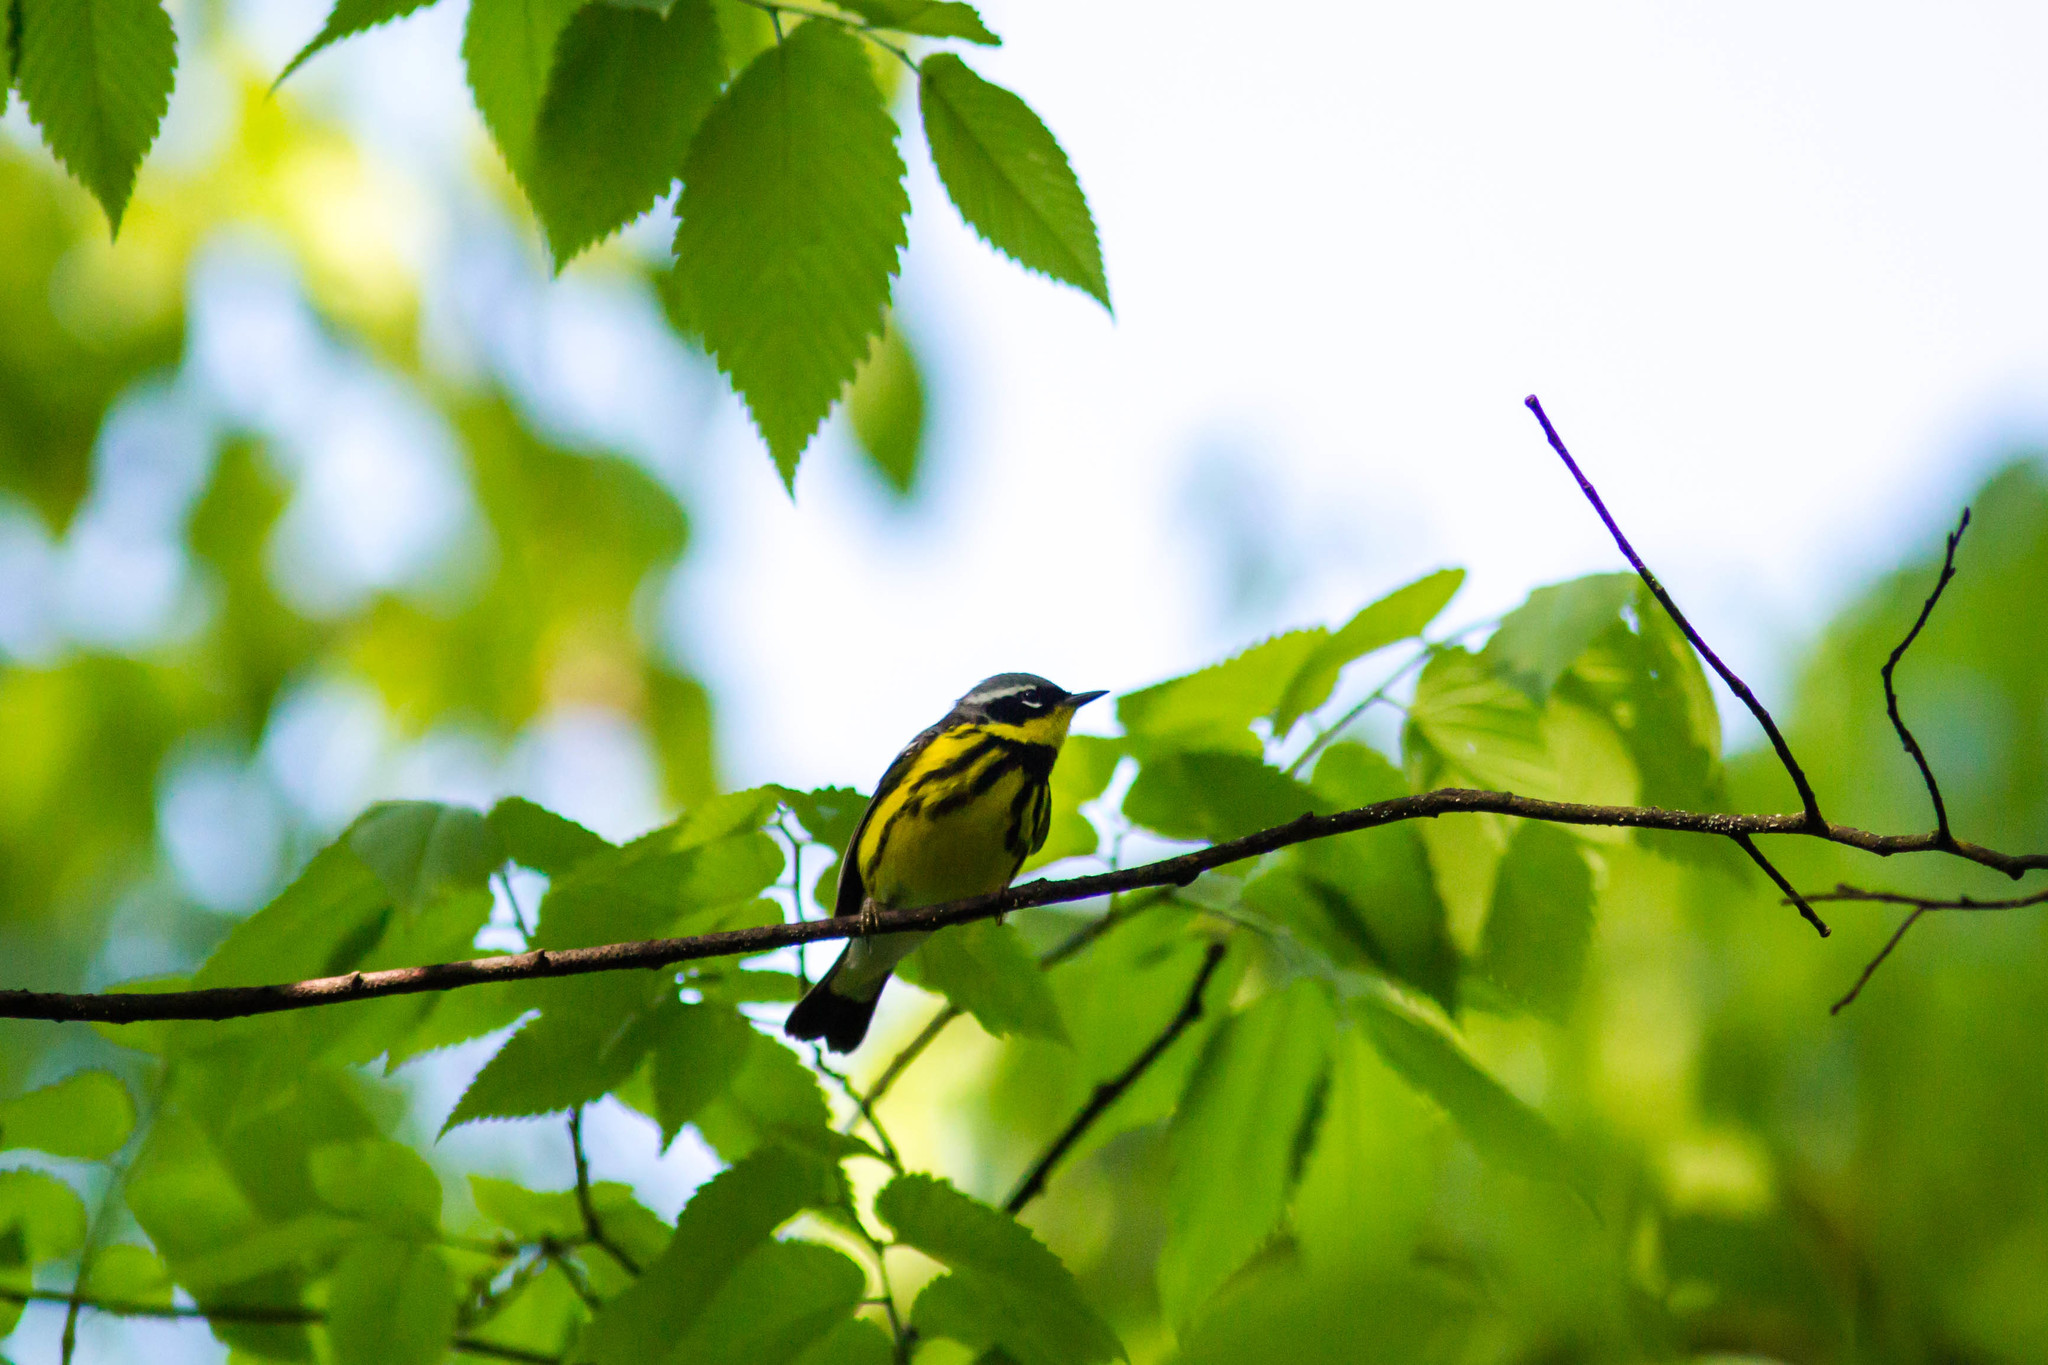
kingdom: Animalia
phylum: Chordata
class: Aves
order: Passeriformes
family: Parulidae
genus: Setophaga
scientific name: Setophaga magnolia
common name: Magnolia warbler
